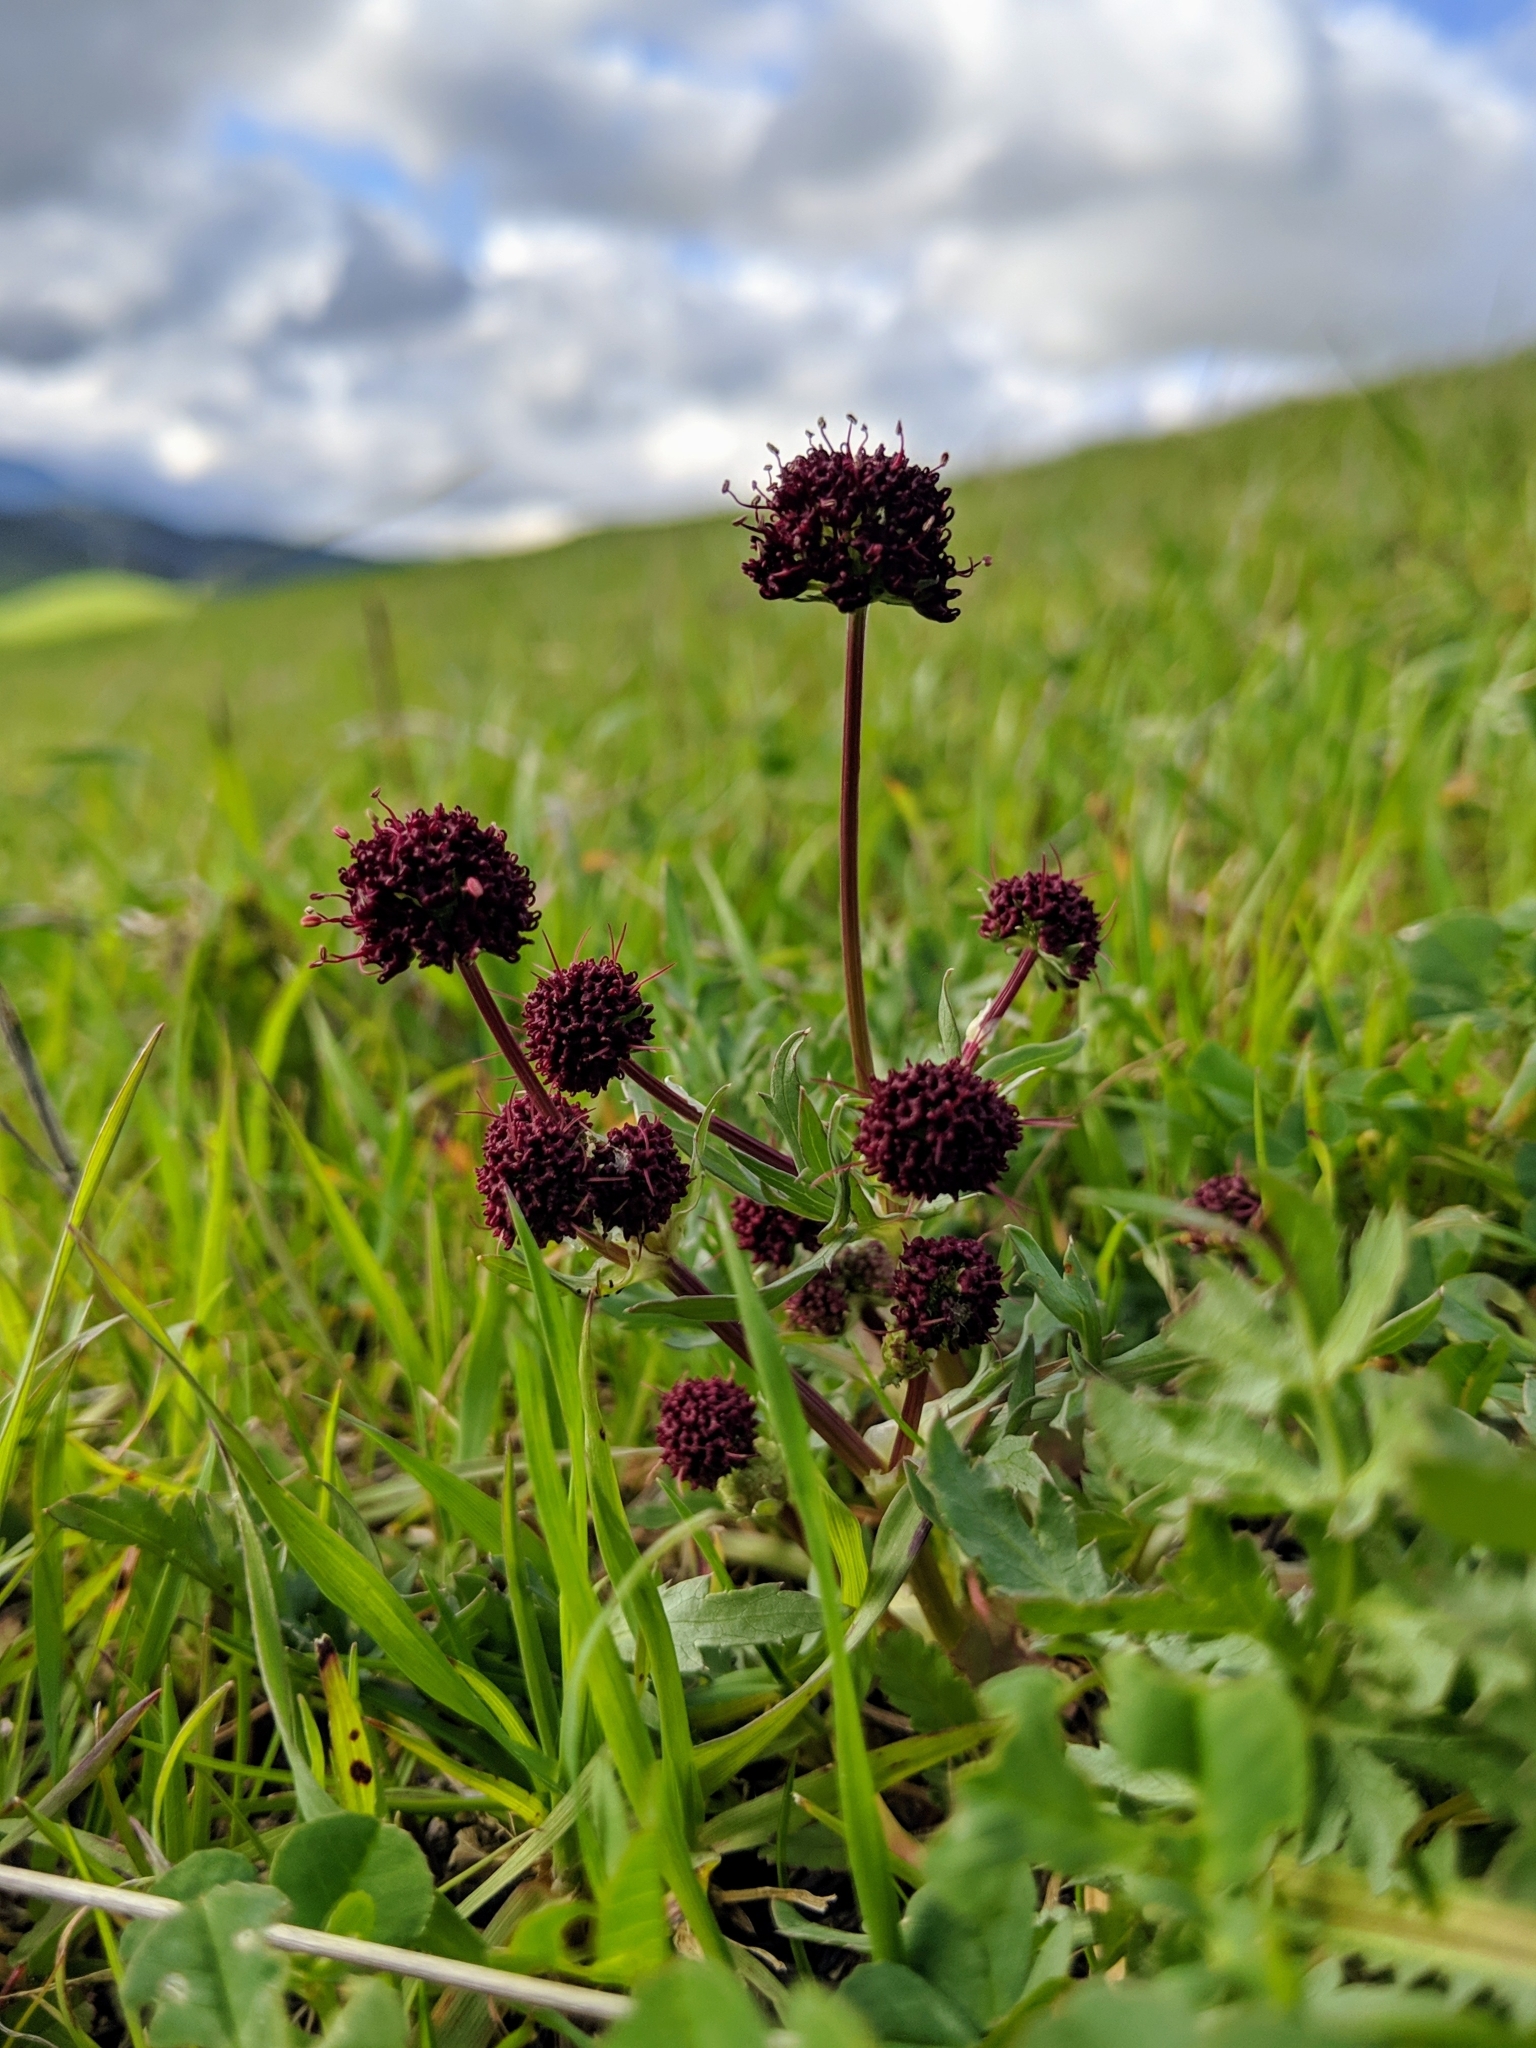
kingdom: Plantae
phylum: Tracheophyta
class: Magnoliopsida
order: Apiales
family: Apiaceae
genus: Sanicula
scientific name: Sanicula bipinnatifida
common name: Shoe-buttons
